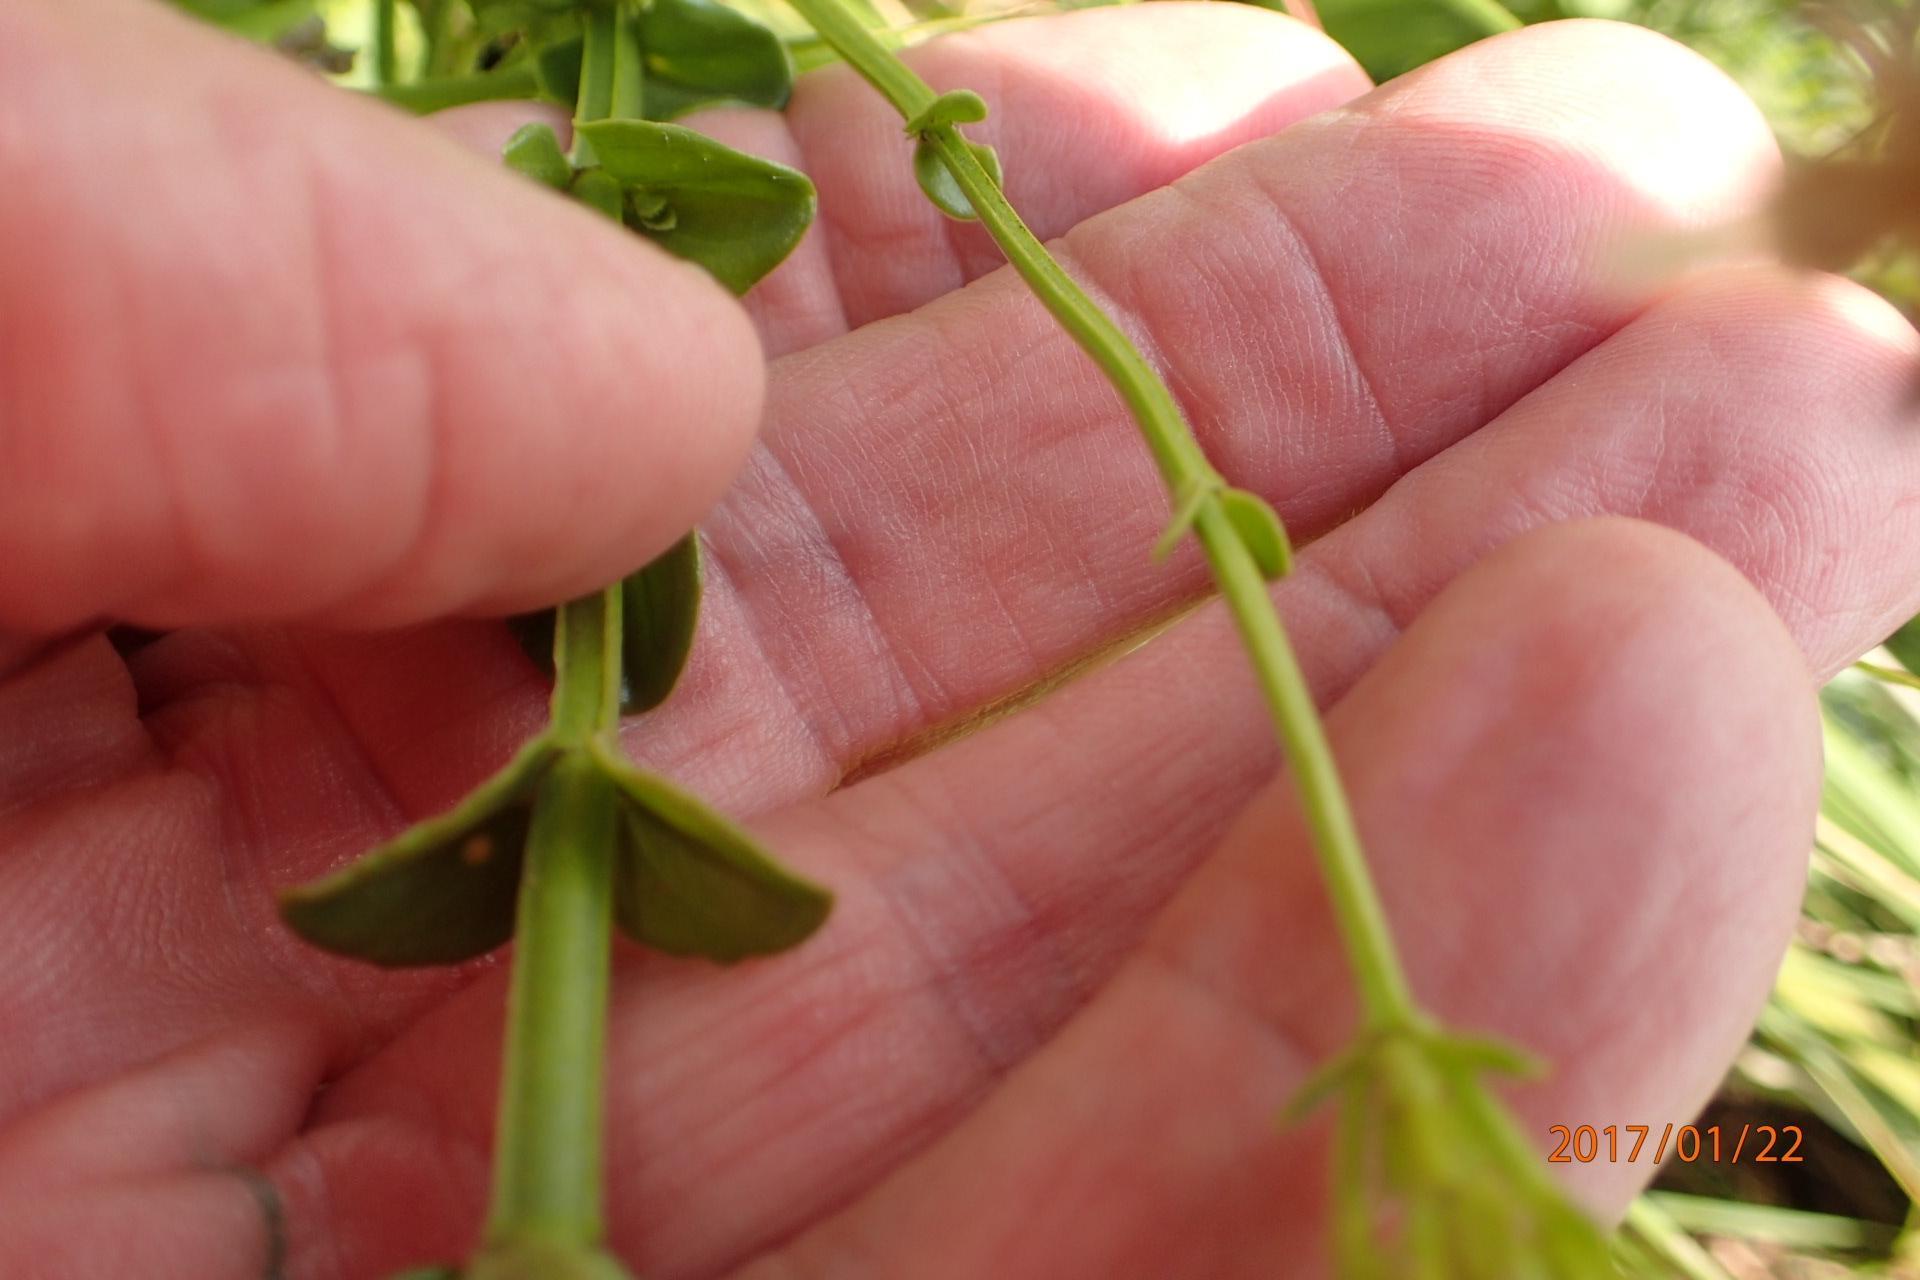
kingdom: Plantae
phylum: Tracheophyta
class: Magnoliopsida
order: Gentianales
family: Gentianaceae
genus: Sebaea
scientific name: Sebaea natalensis
